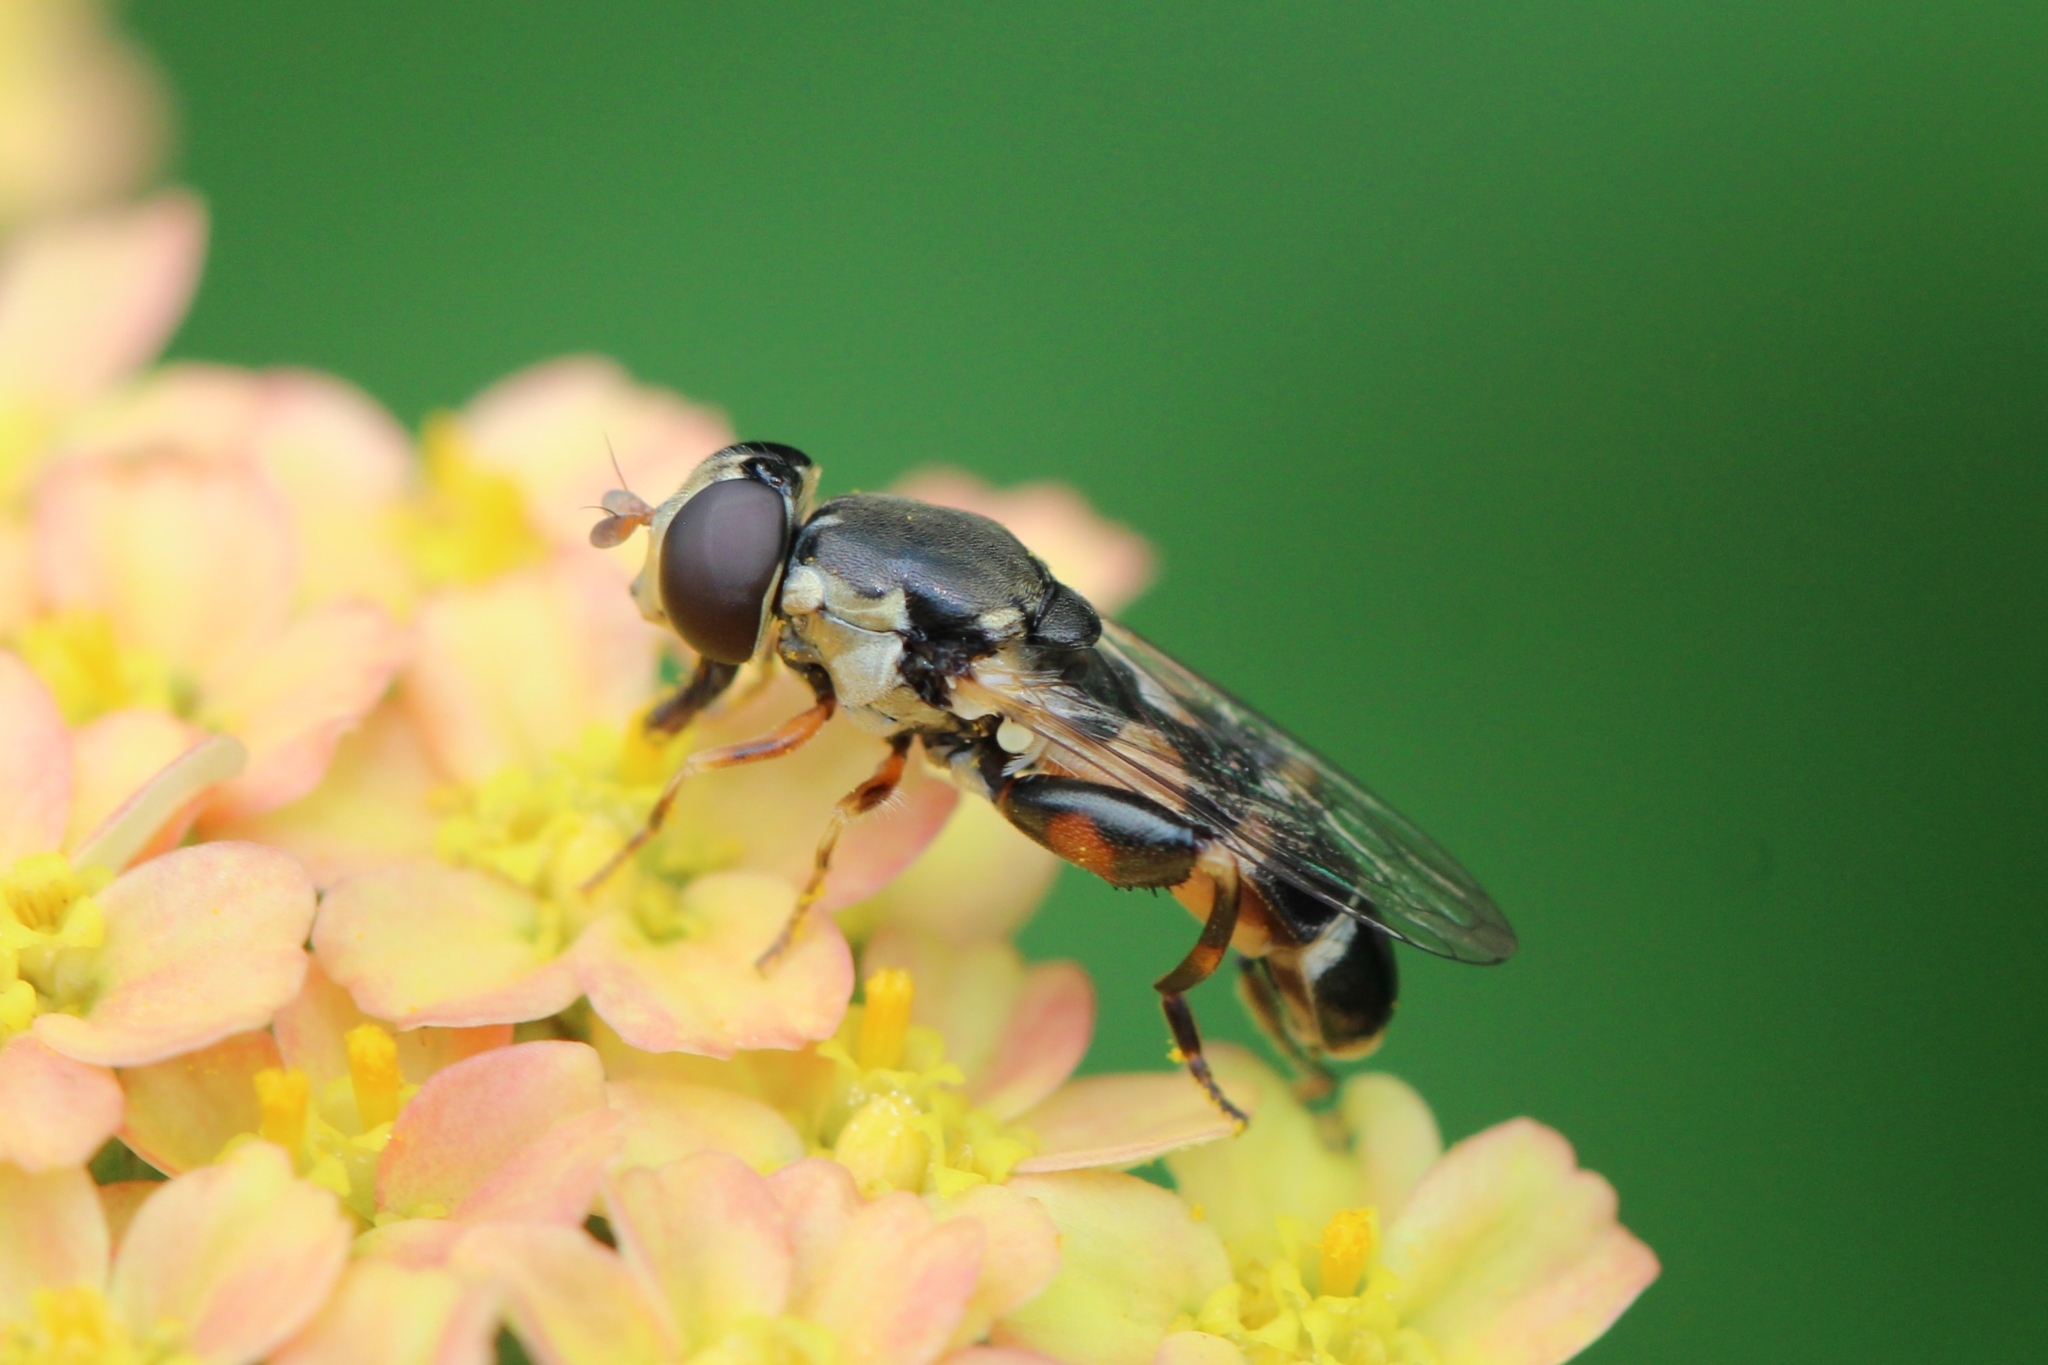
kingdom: Animalia
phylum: Arthropoda
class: Insecta
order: Diptera
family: Syrphidae
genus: Syritta
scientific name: Syritta pipiens
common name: Hover fly
